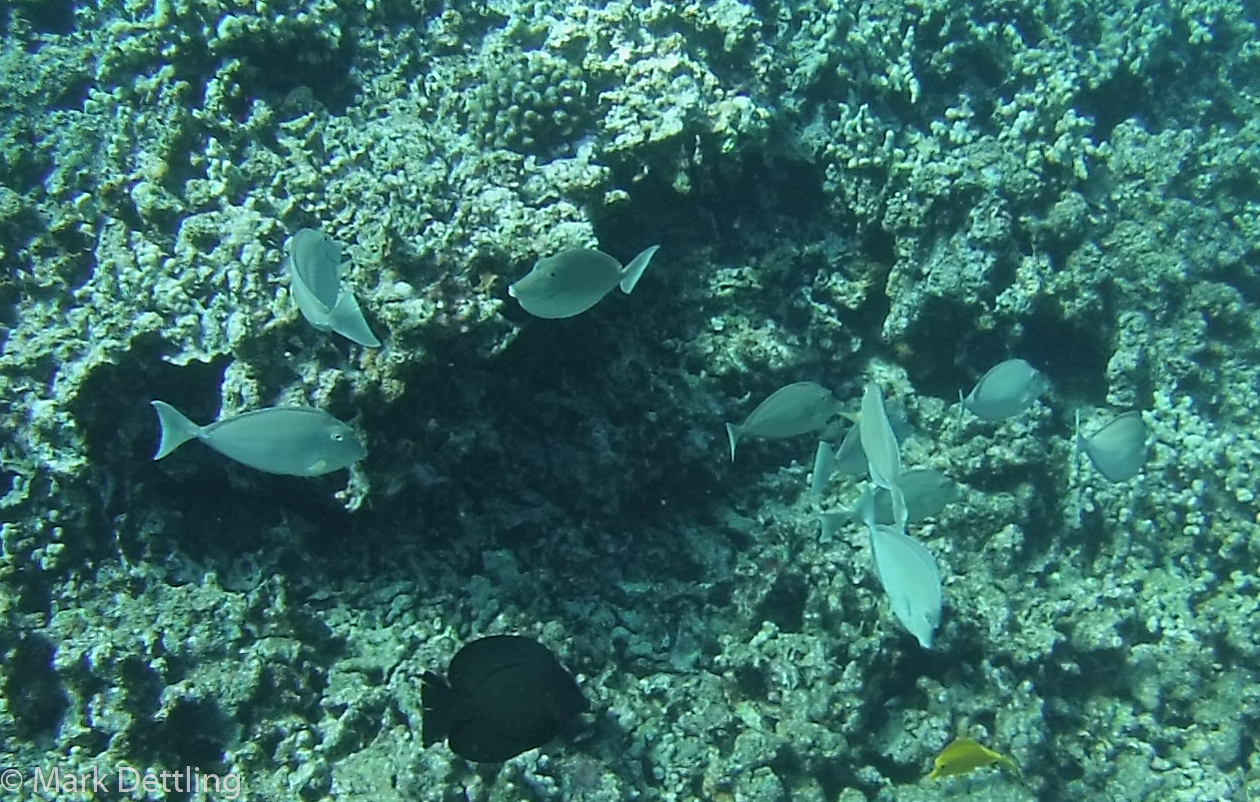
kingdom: Animalia
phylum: Chordata
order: Perciformes
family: Acanthuridae
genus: Ctenochaetus
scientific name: Ctenochaetus hawaiiensis
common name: Hawaiian surgeonfish
